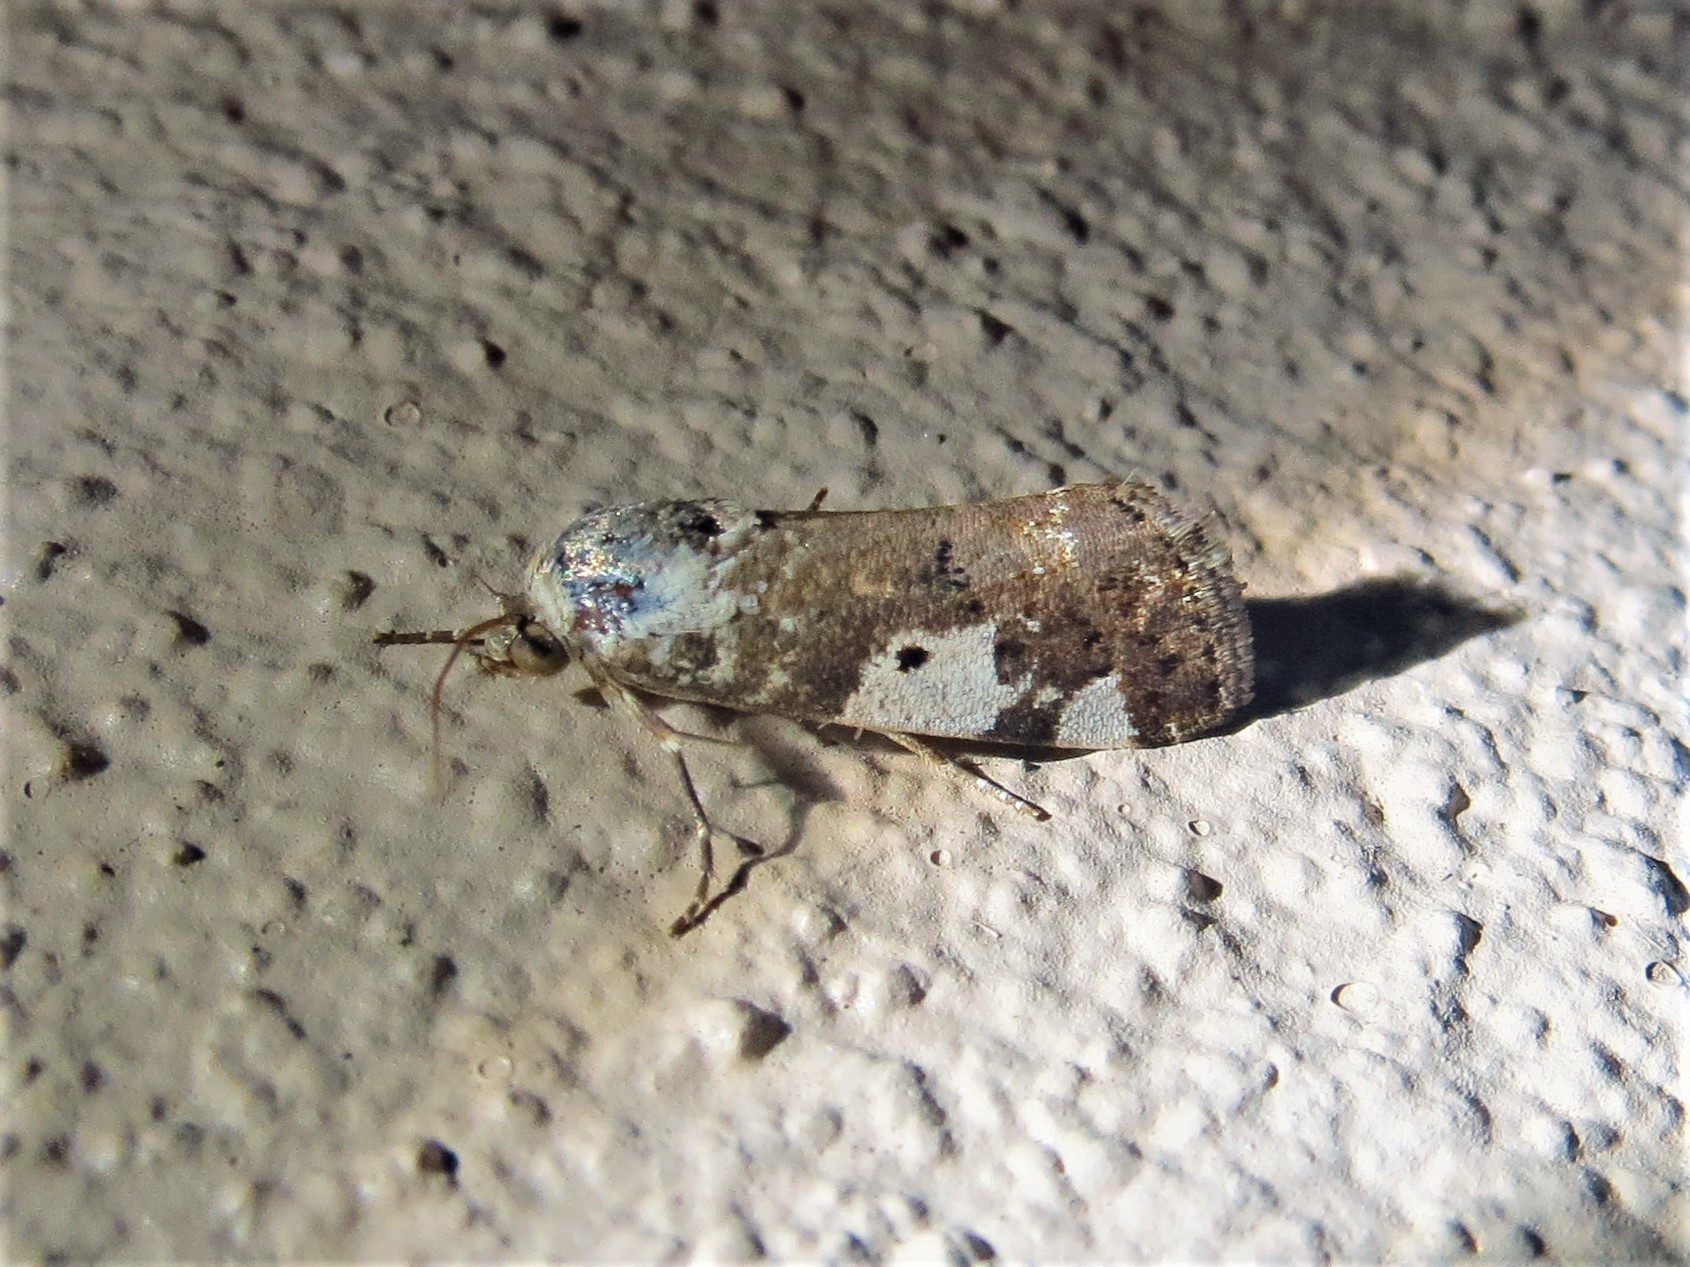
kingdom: Animalia
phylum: Arthropoda
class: Insecta
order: Lepidoptera
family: Noctuidae
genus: Acontia
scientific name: Acontia aprica
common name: Nun
